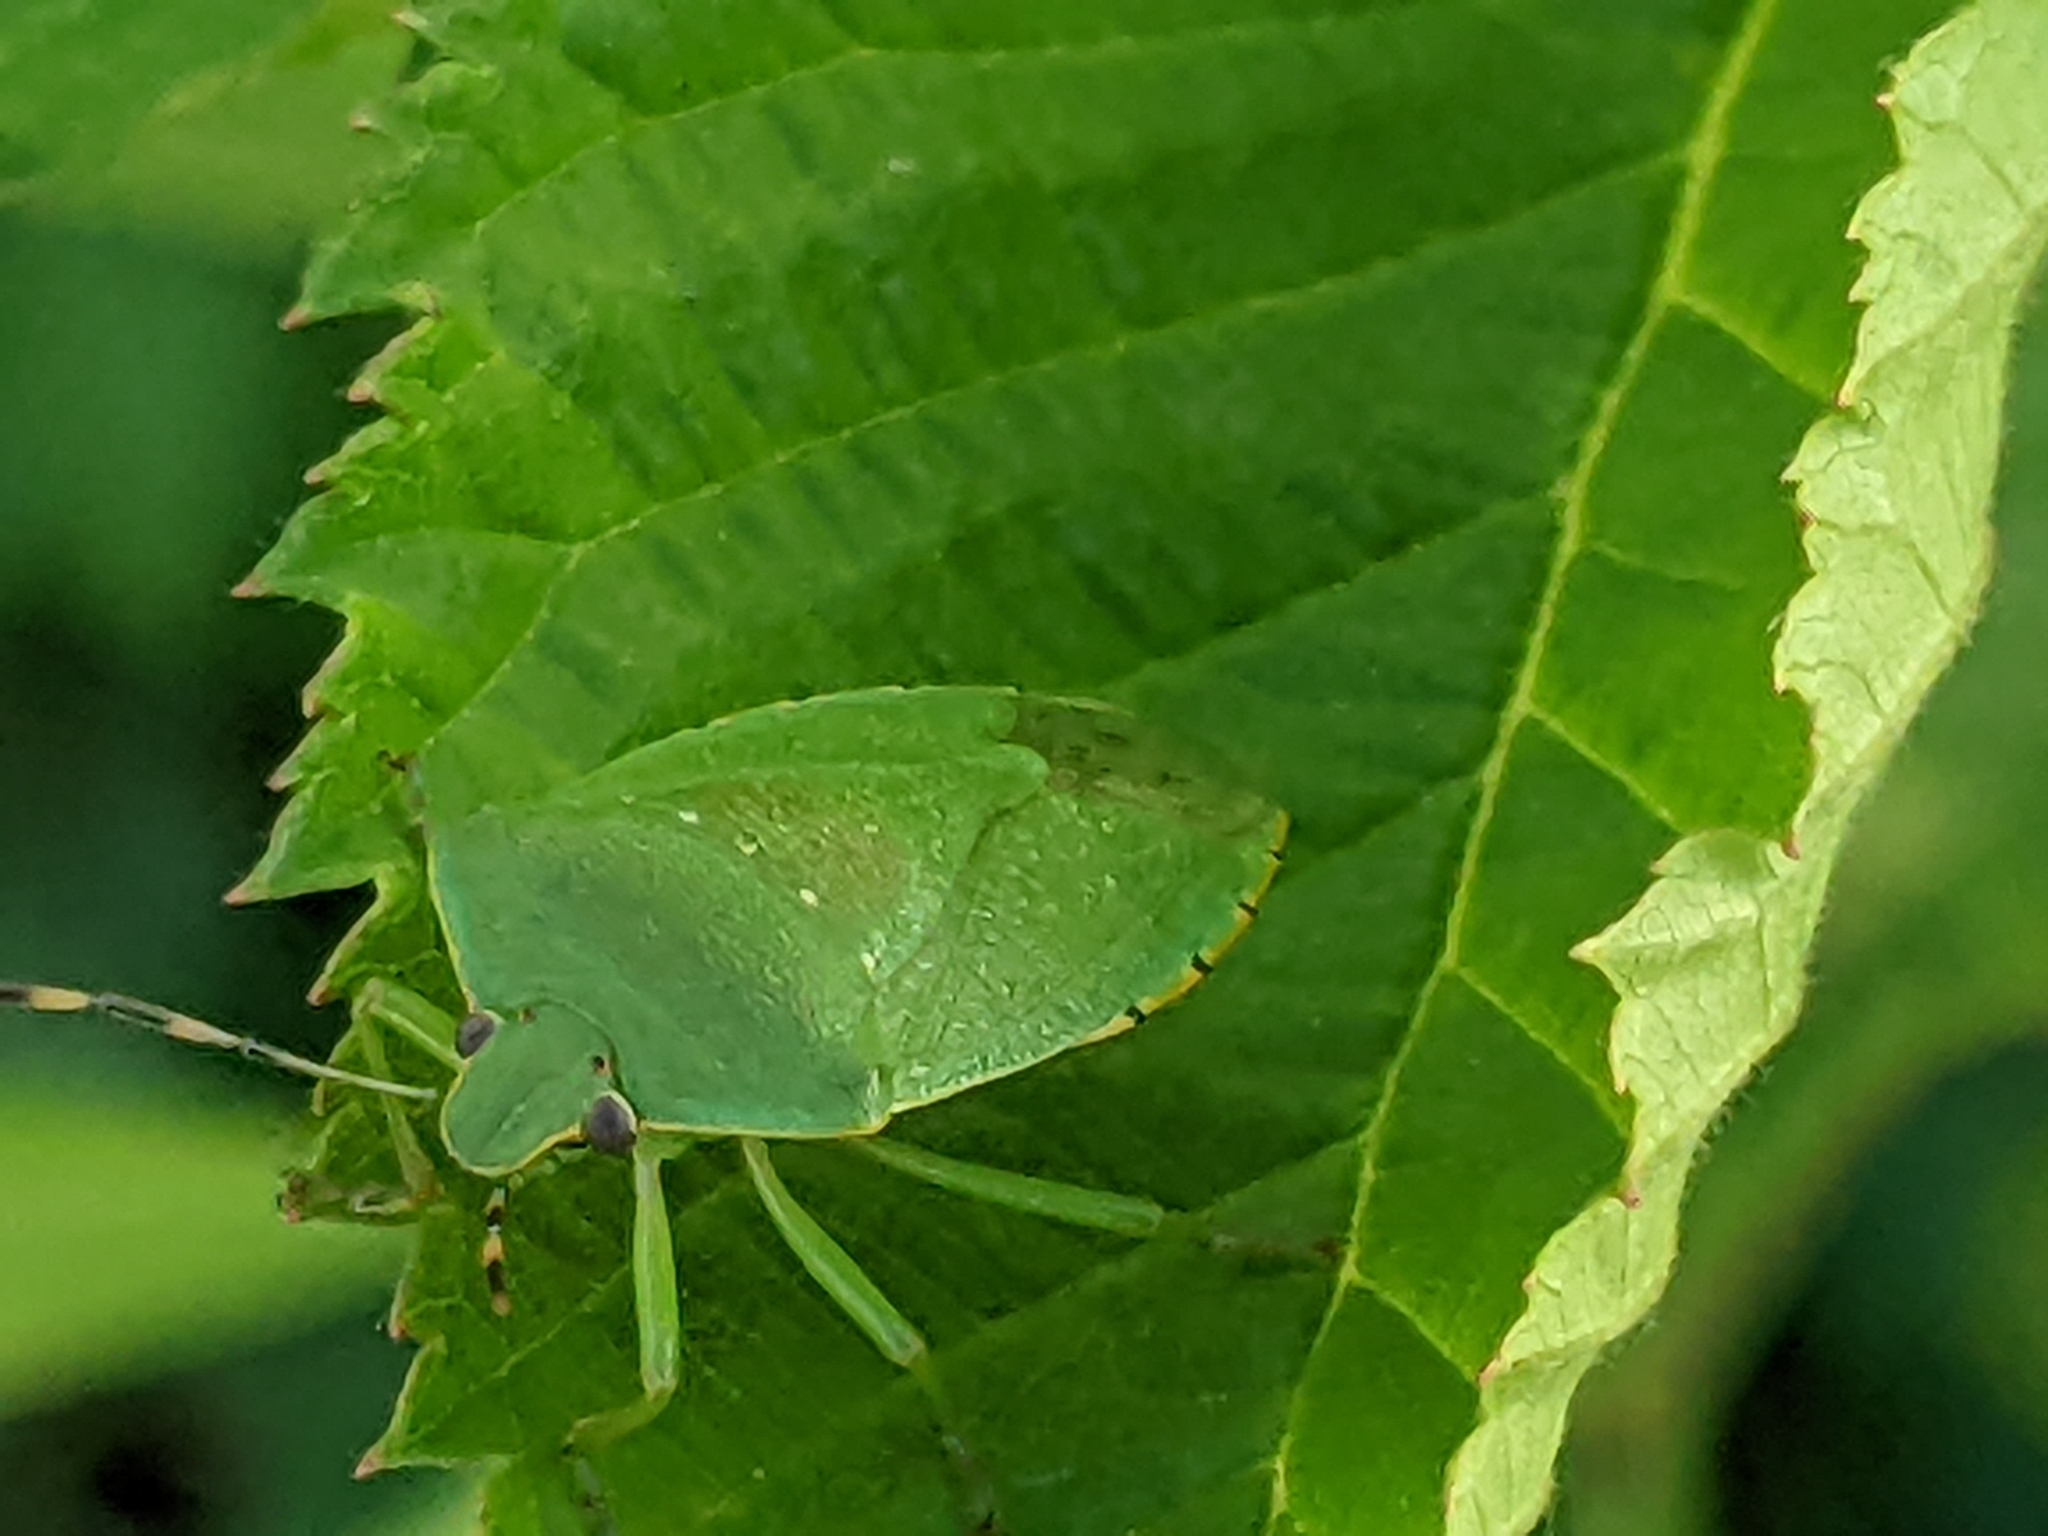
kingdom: Animalia
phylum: Arthropoda
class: Insecta
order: Hemiptera
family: Pentatomidae
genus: Chinavia
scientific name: Chinavia hilaris
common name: Green stink bug
